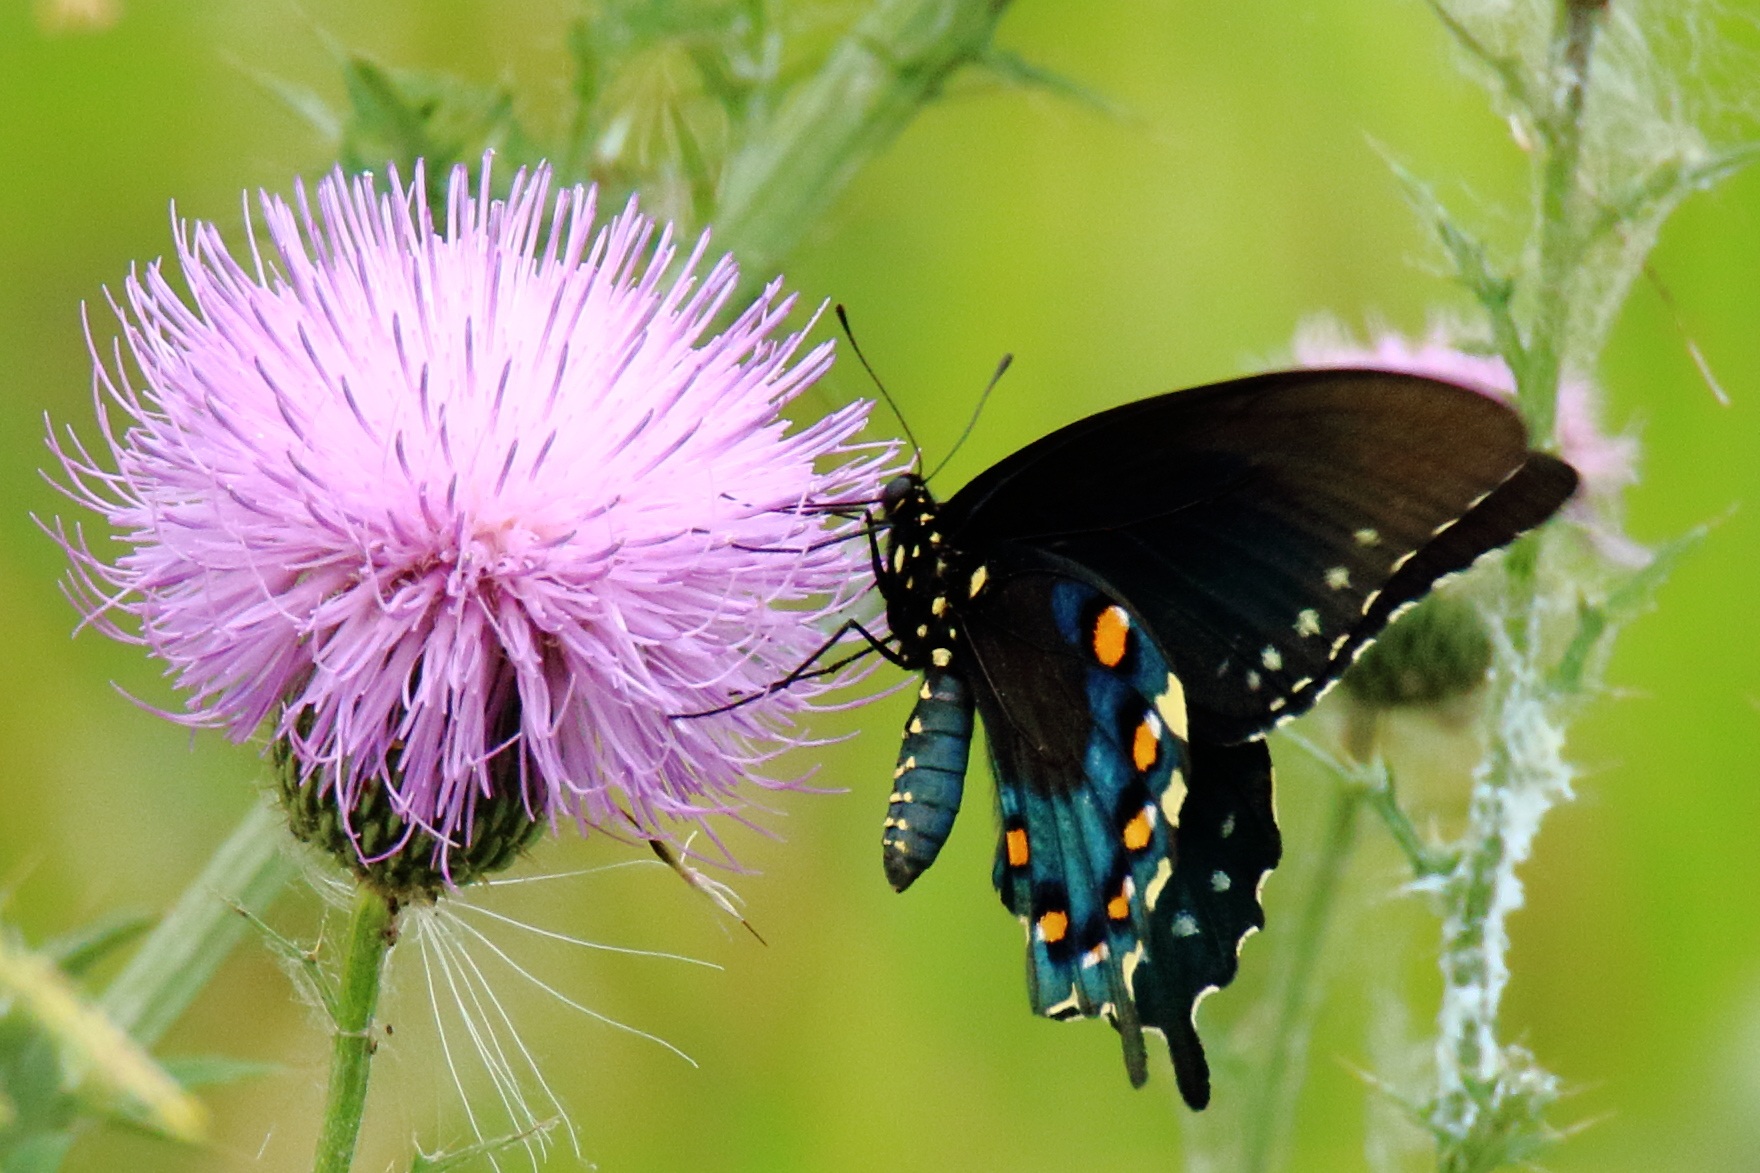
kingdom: Animalia
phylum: Arthropoda
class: Insecta
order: Lepidoptera
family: Papilionidae
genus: Battus
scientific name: Battus philenor
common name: Pipevine swallowtail
